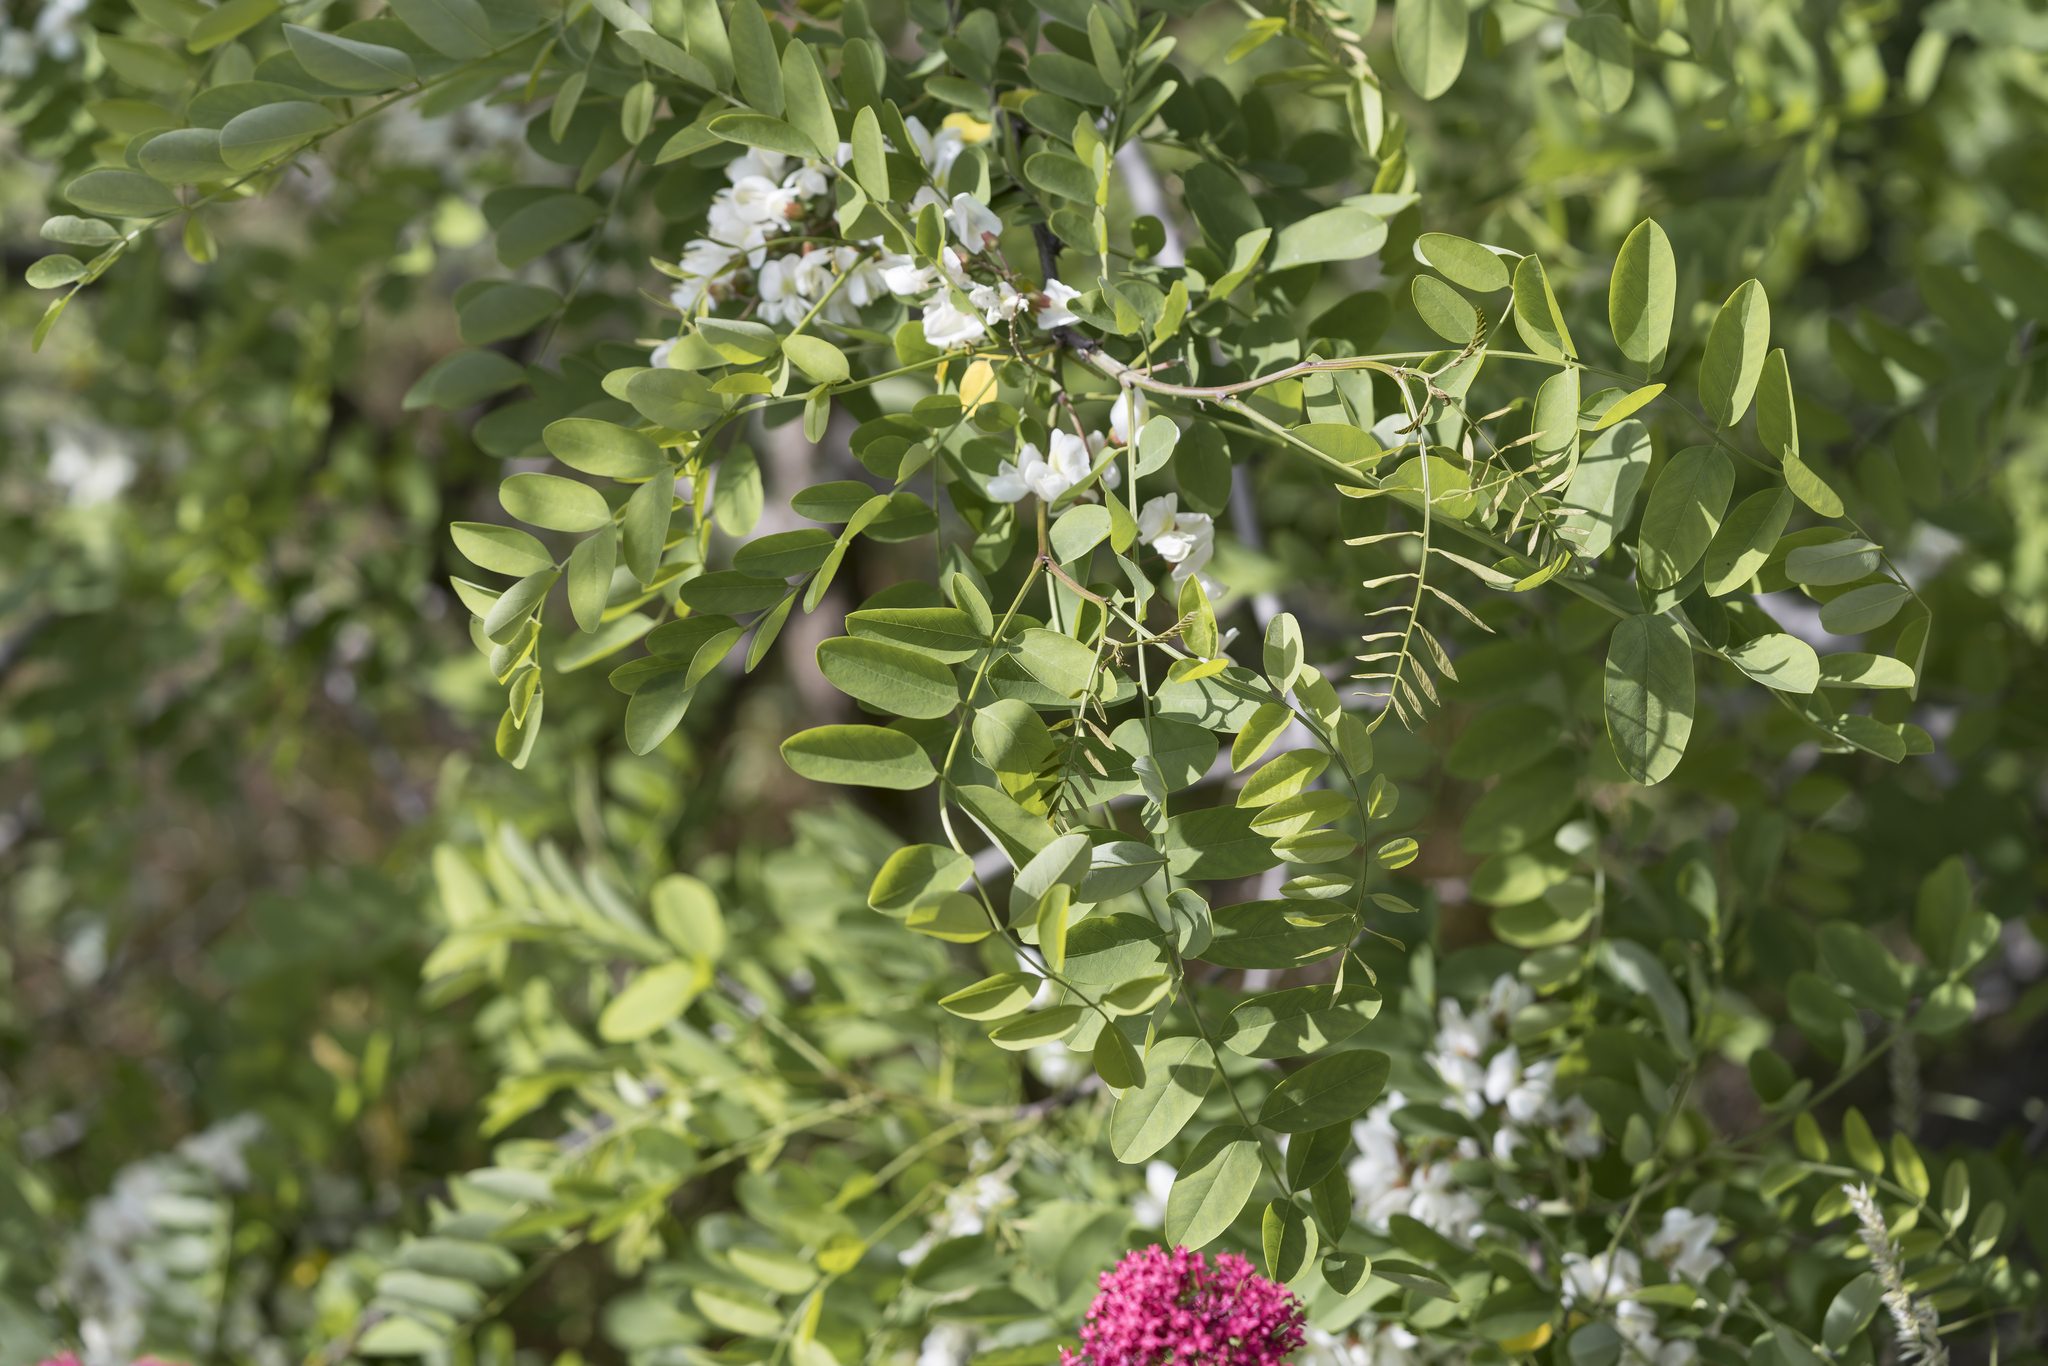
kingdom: Plantae
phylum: Tracheophyta
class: Magnoliopsida
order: Fabales
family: Fabaceae
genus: Robinia
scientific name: Robinia pseudoacacia
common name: Black locust
